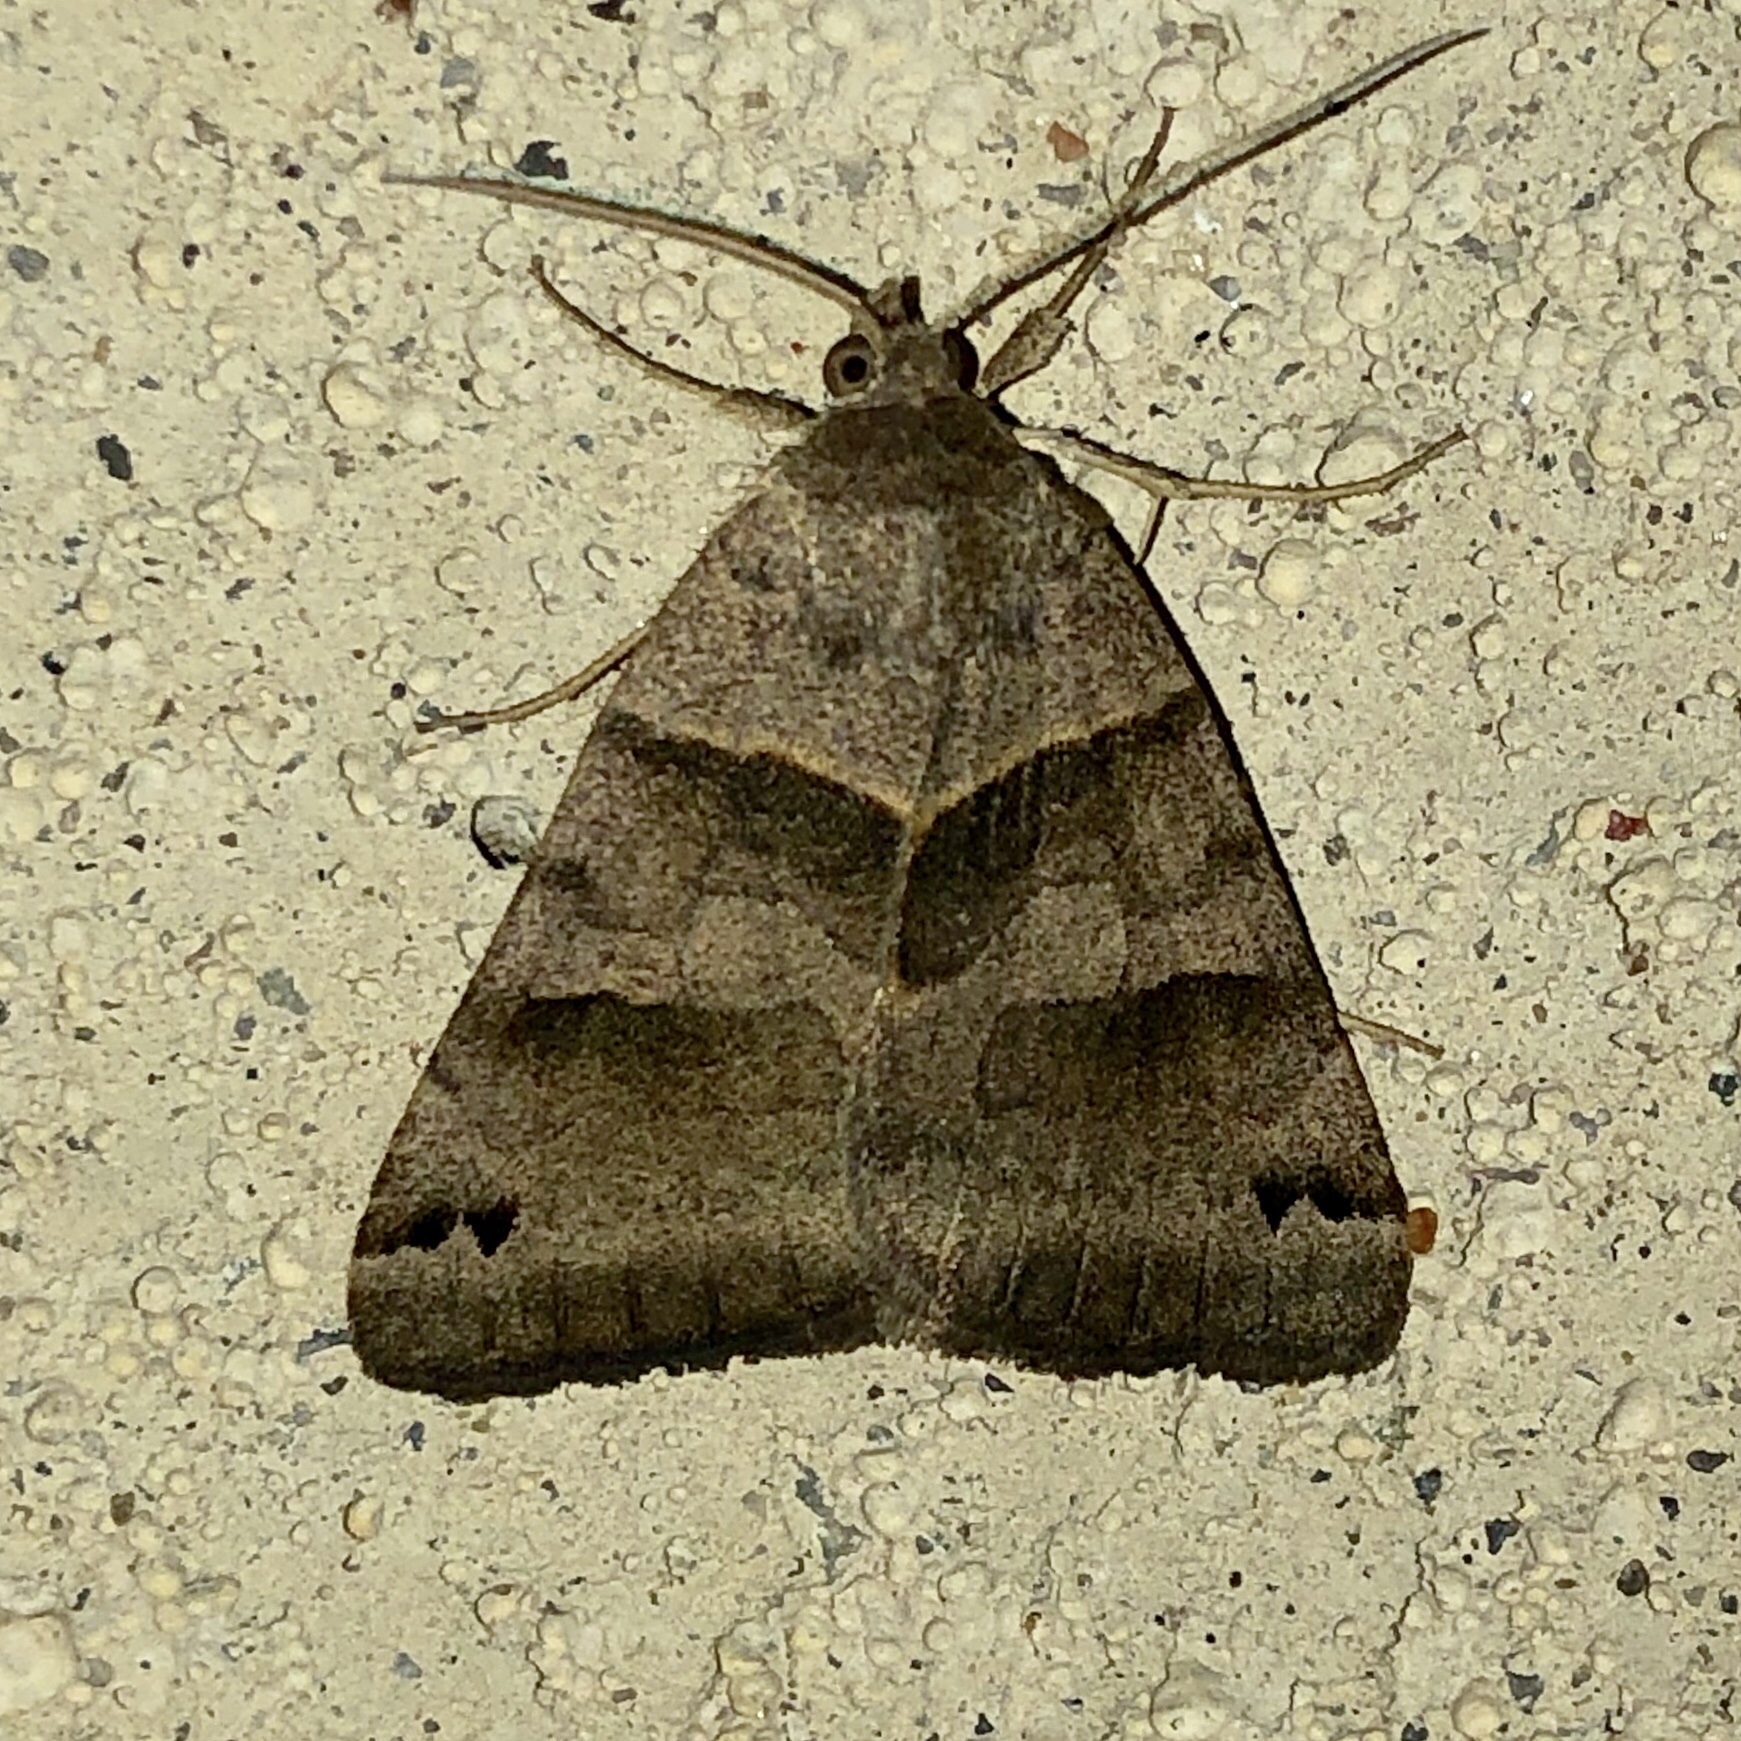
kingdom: Animalia
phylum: Arthropoda
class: Insecta
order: Lepidoptera
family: Erebidae
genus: Caenurgina
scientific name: Caenurgina erechtea
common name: Forage looper moth
